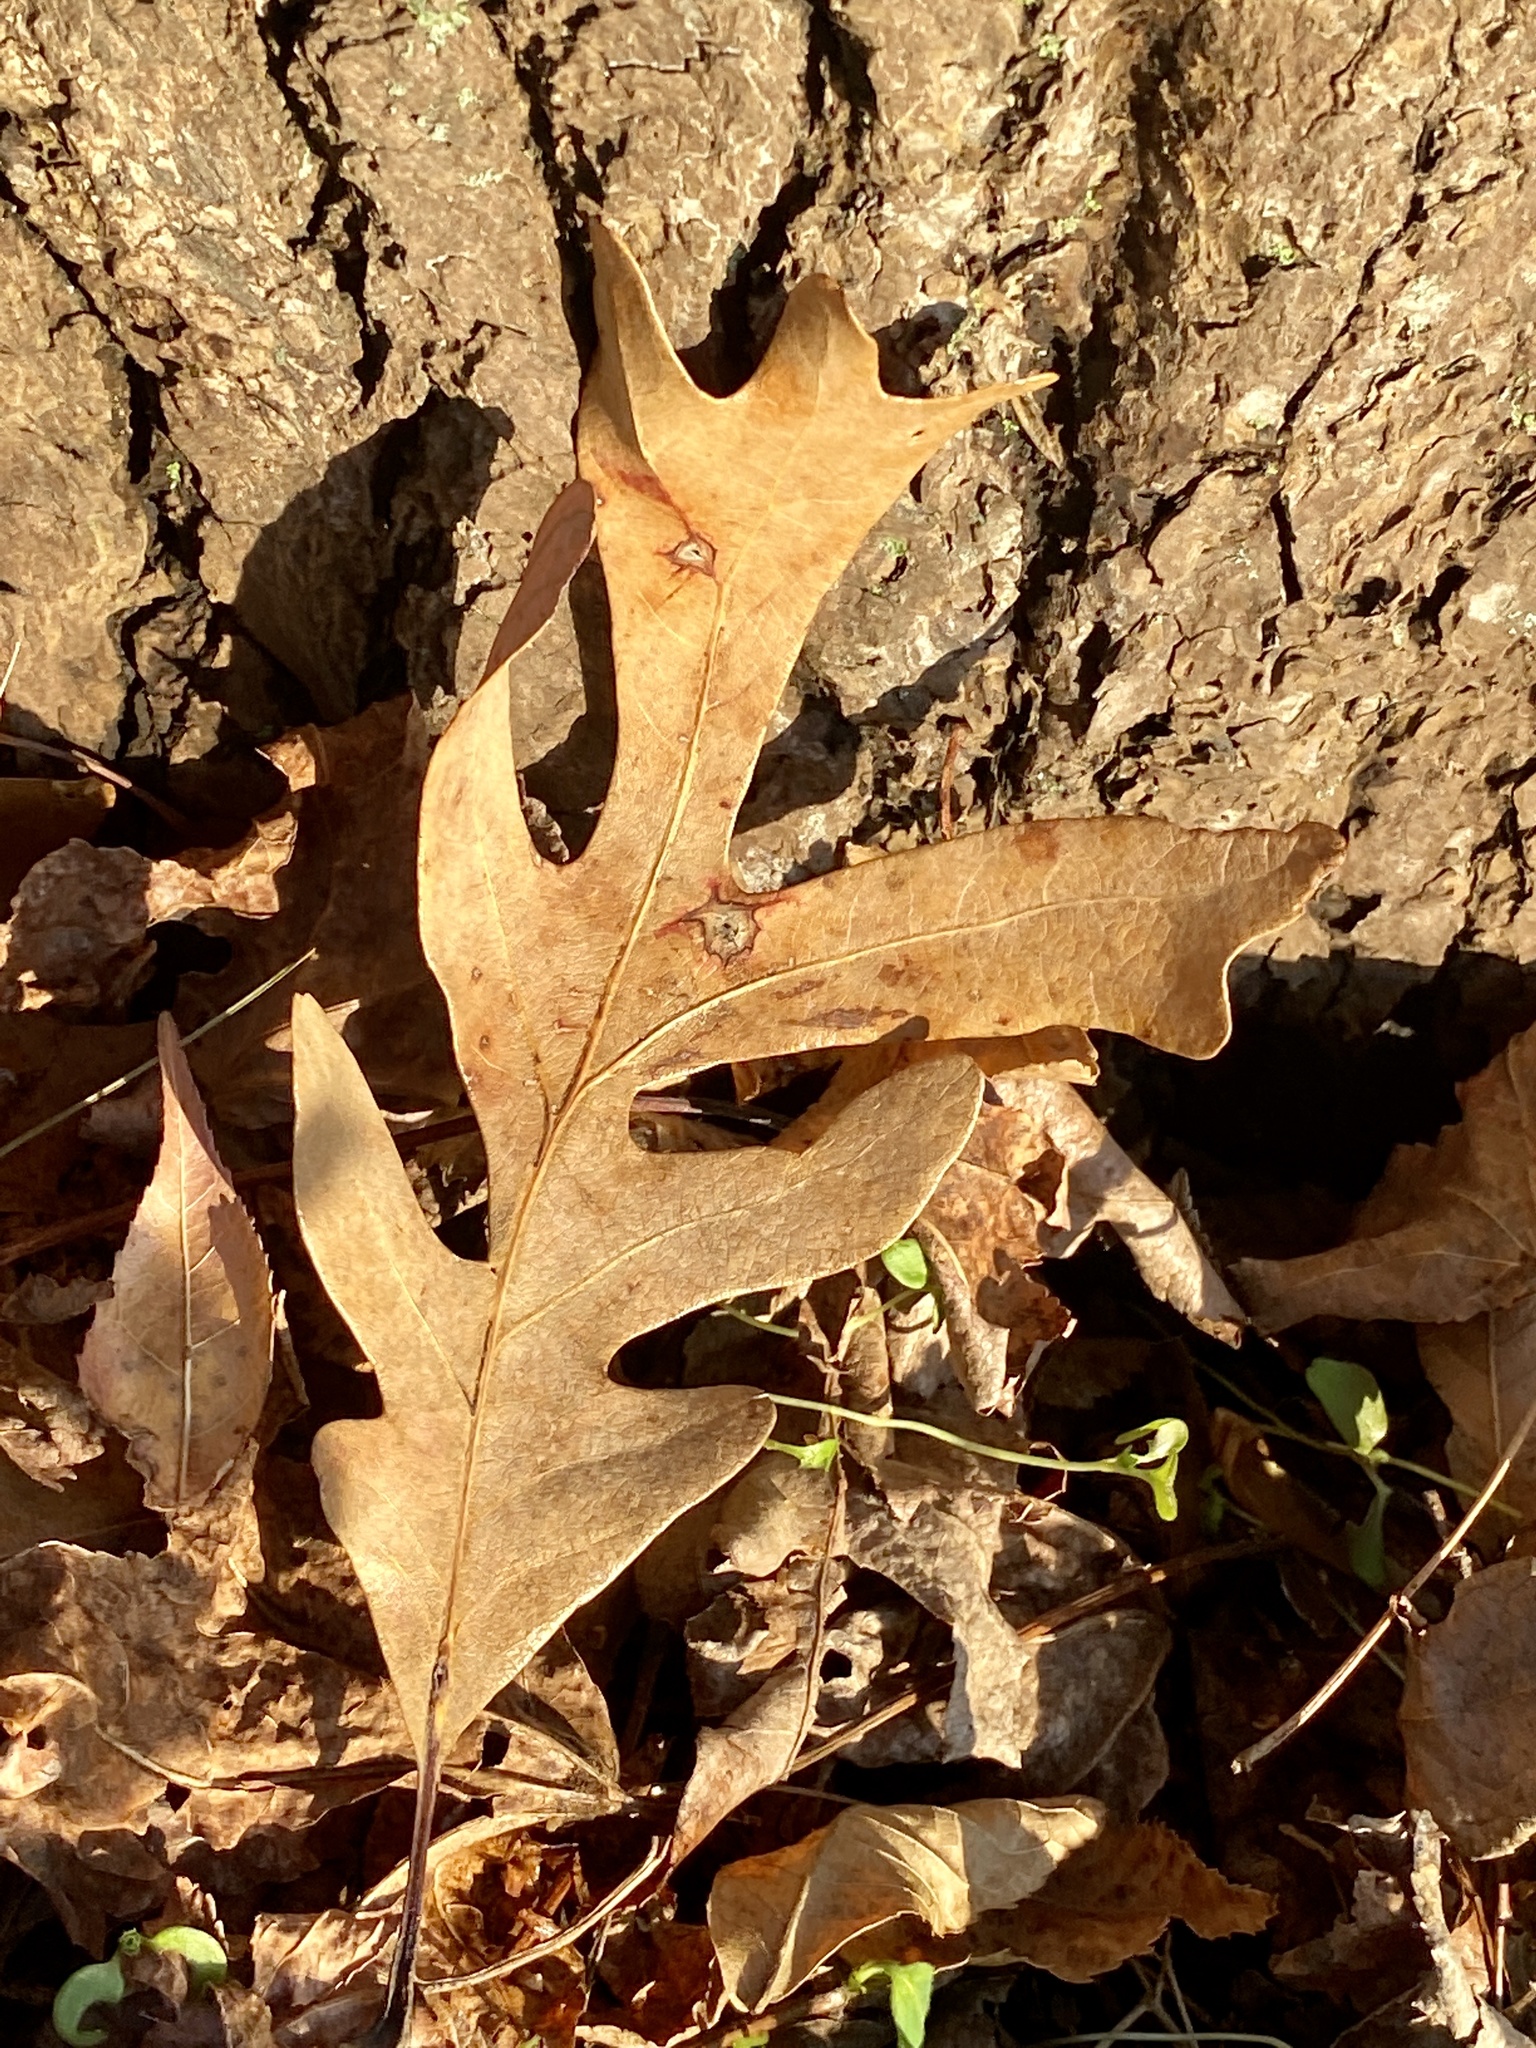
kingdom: Plantae
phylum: Tracheophyta
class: Magnoliopsida
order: Fagales
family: Fagaceae
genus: Quercus
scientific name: Quercus alba
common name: White oak
